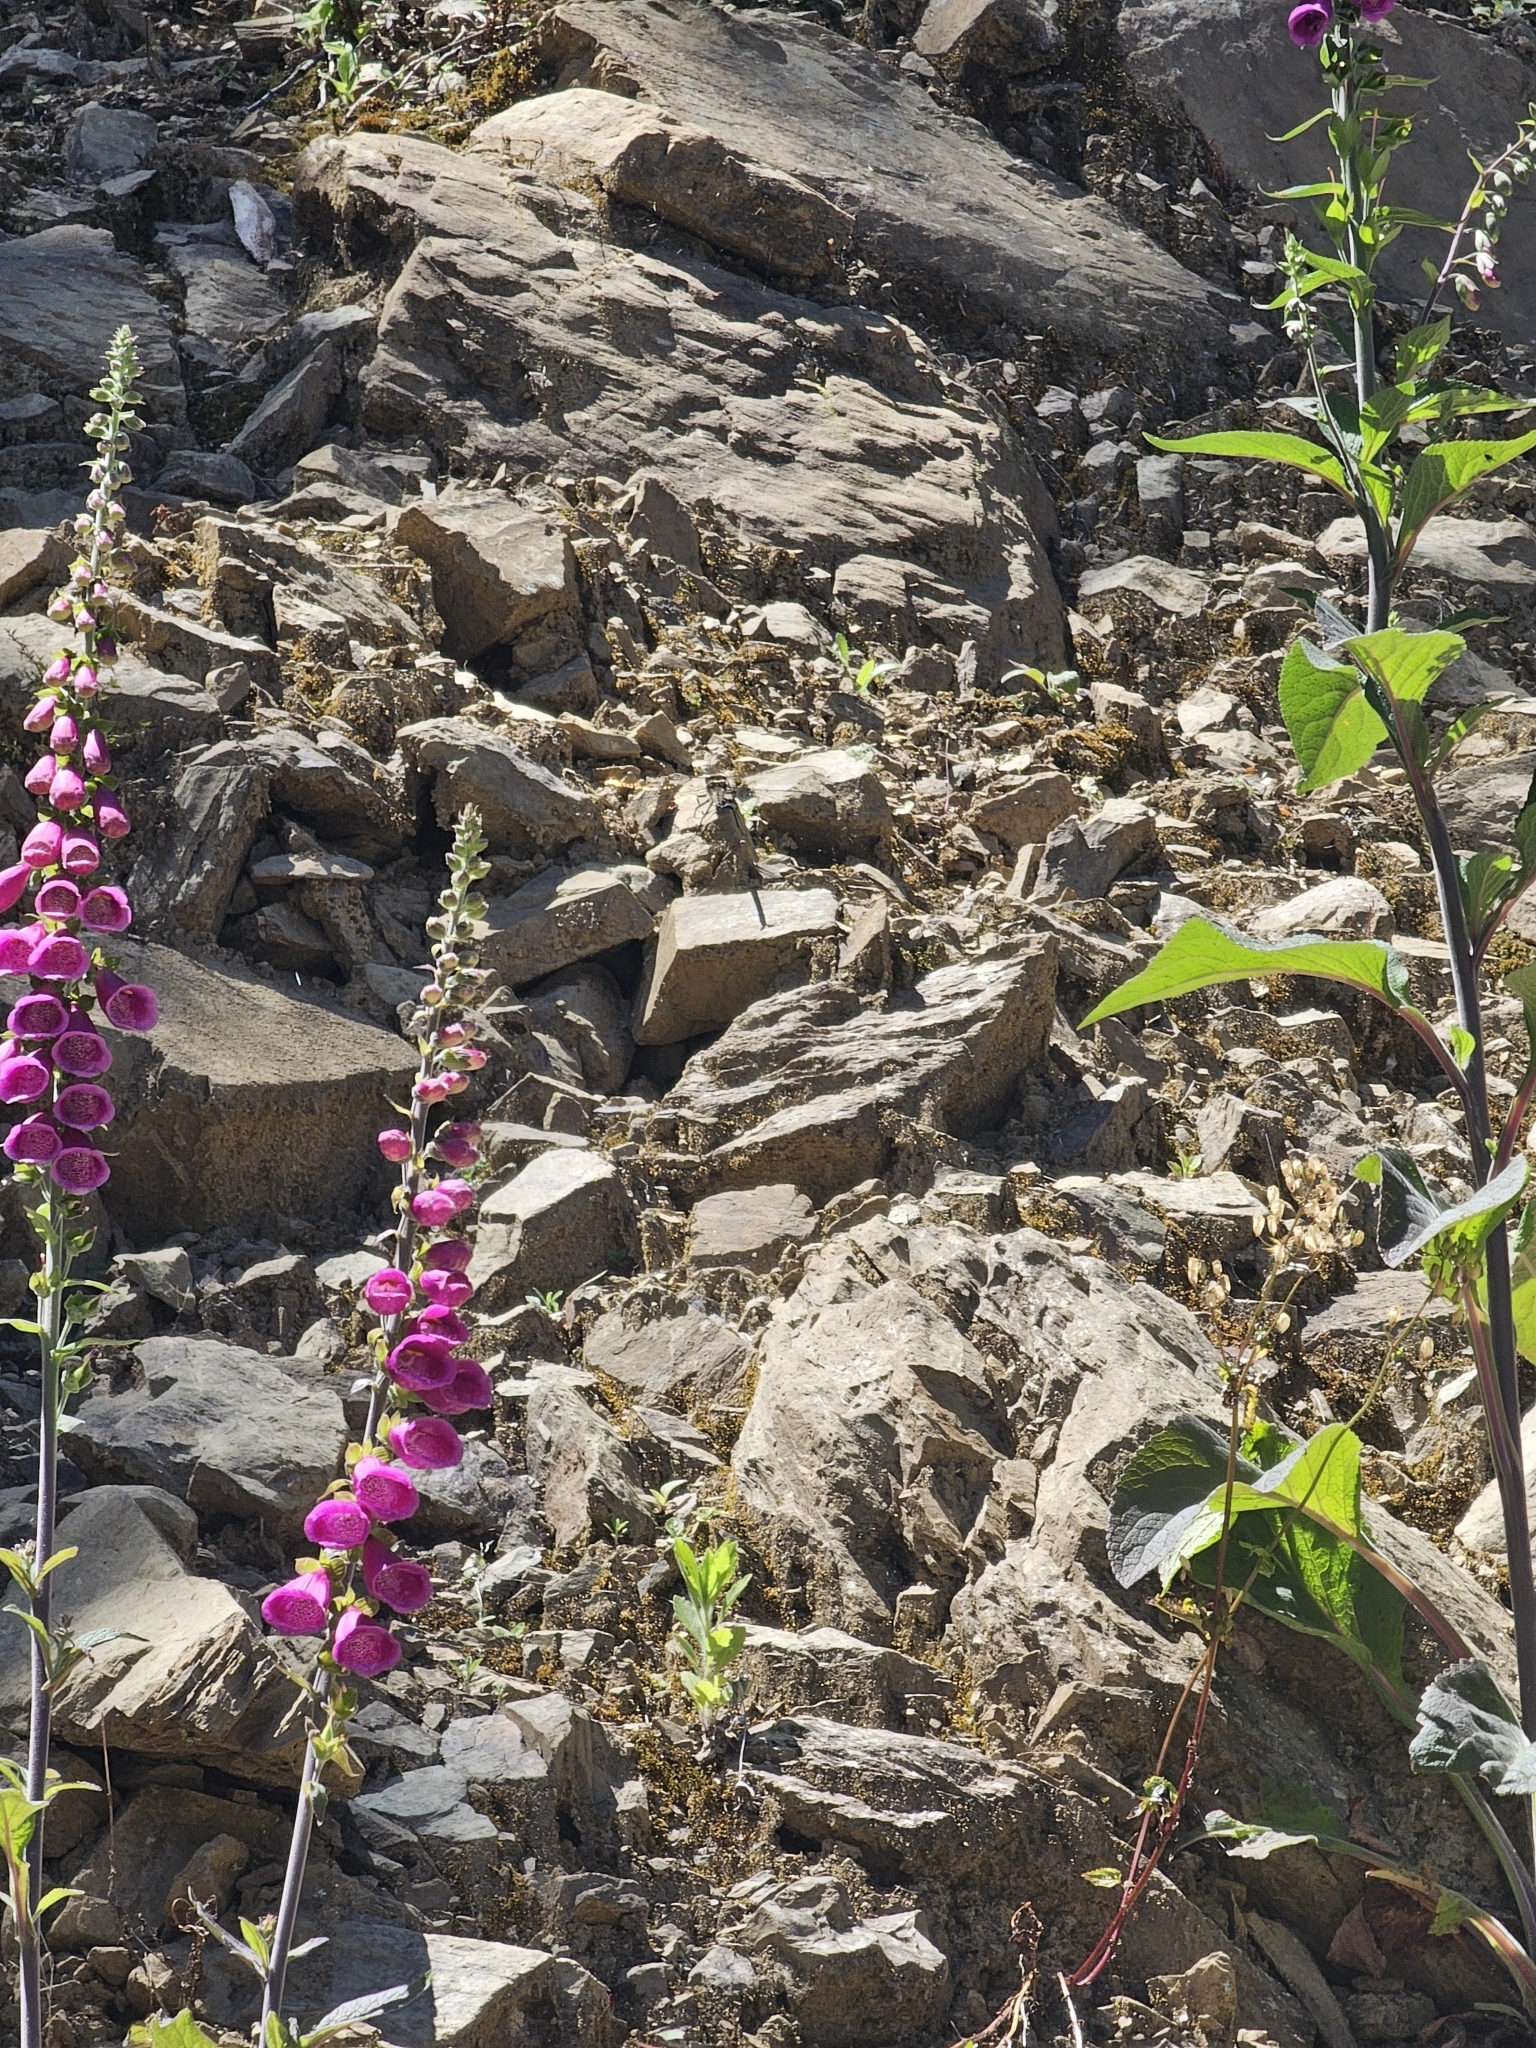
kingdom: Animalia
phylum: Arthropoda
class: Insecta
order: Odonata
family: Petaluridae
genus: Uropetala
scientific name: Uropetala carovei
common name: Bush giant dragonfly
